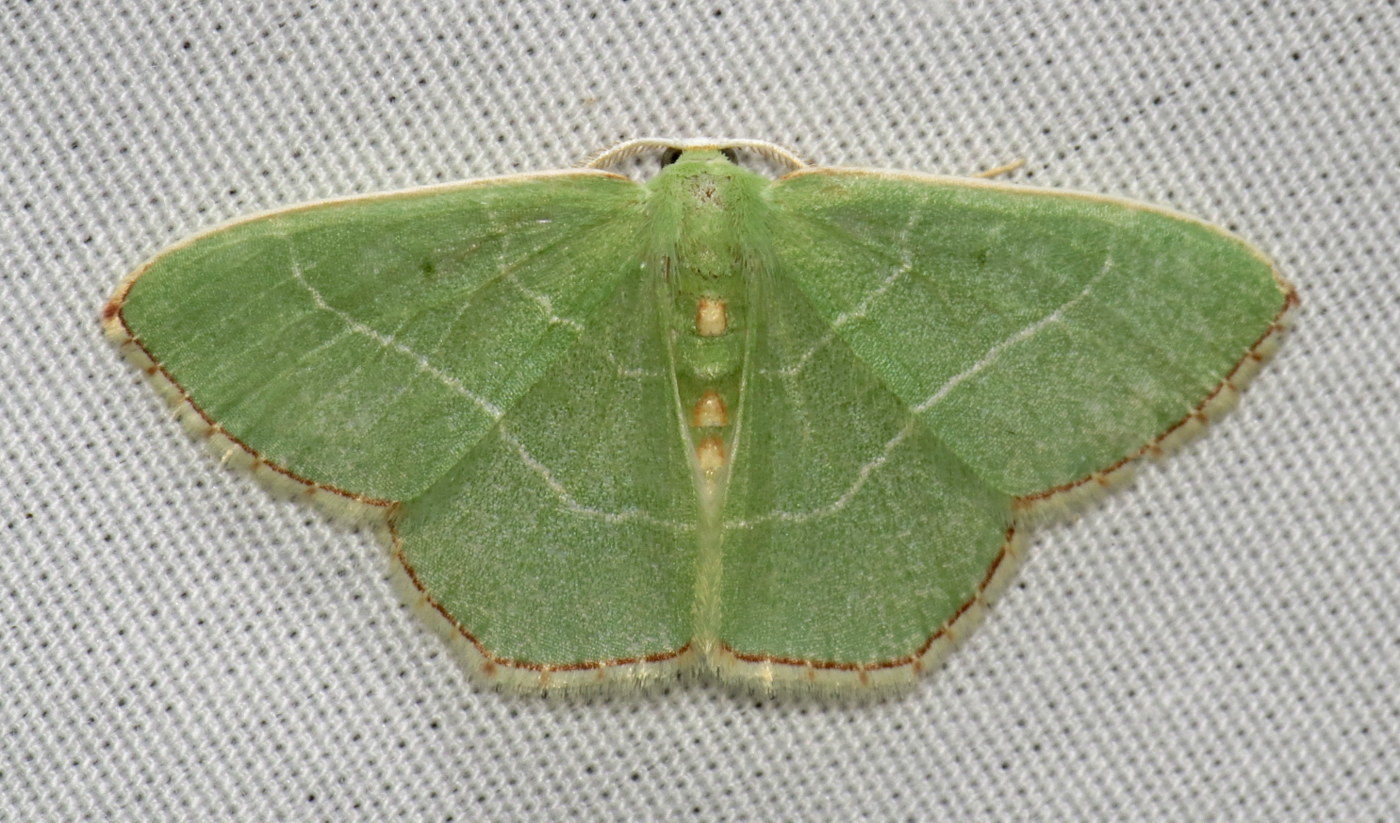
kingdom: Animalia
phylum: Arthropoda
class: Insecta
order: Lepidoptera
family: Geometridae
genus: Nemoria
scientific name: Nemoria bistriaria
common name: Red-fringed emerald
